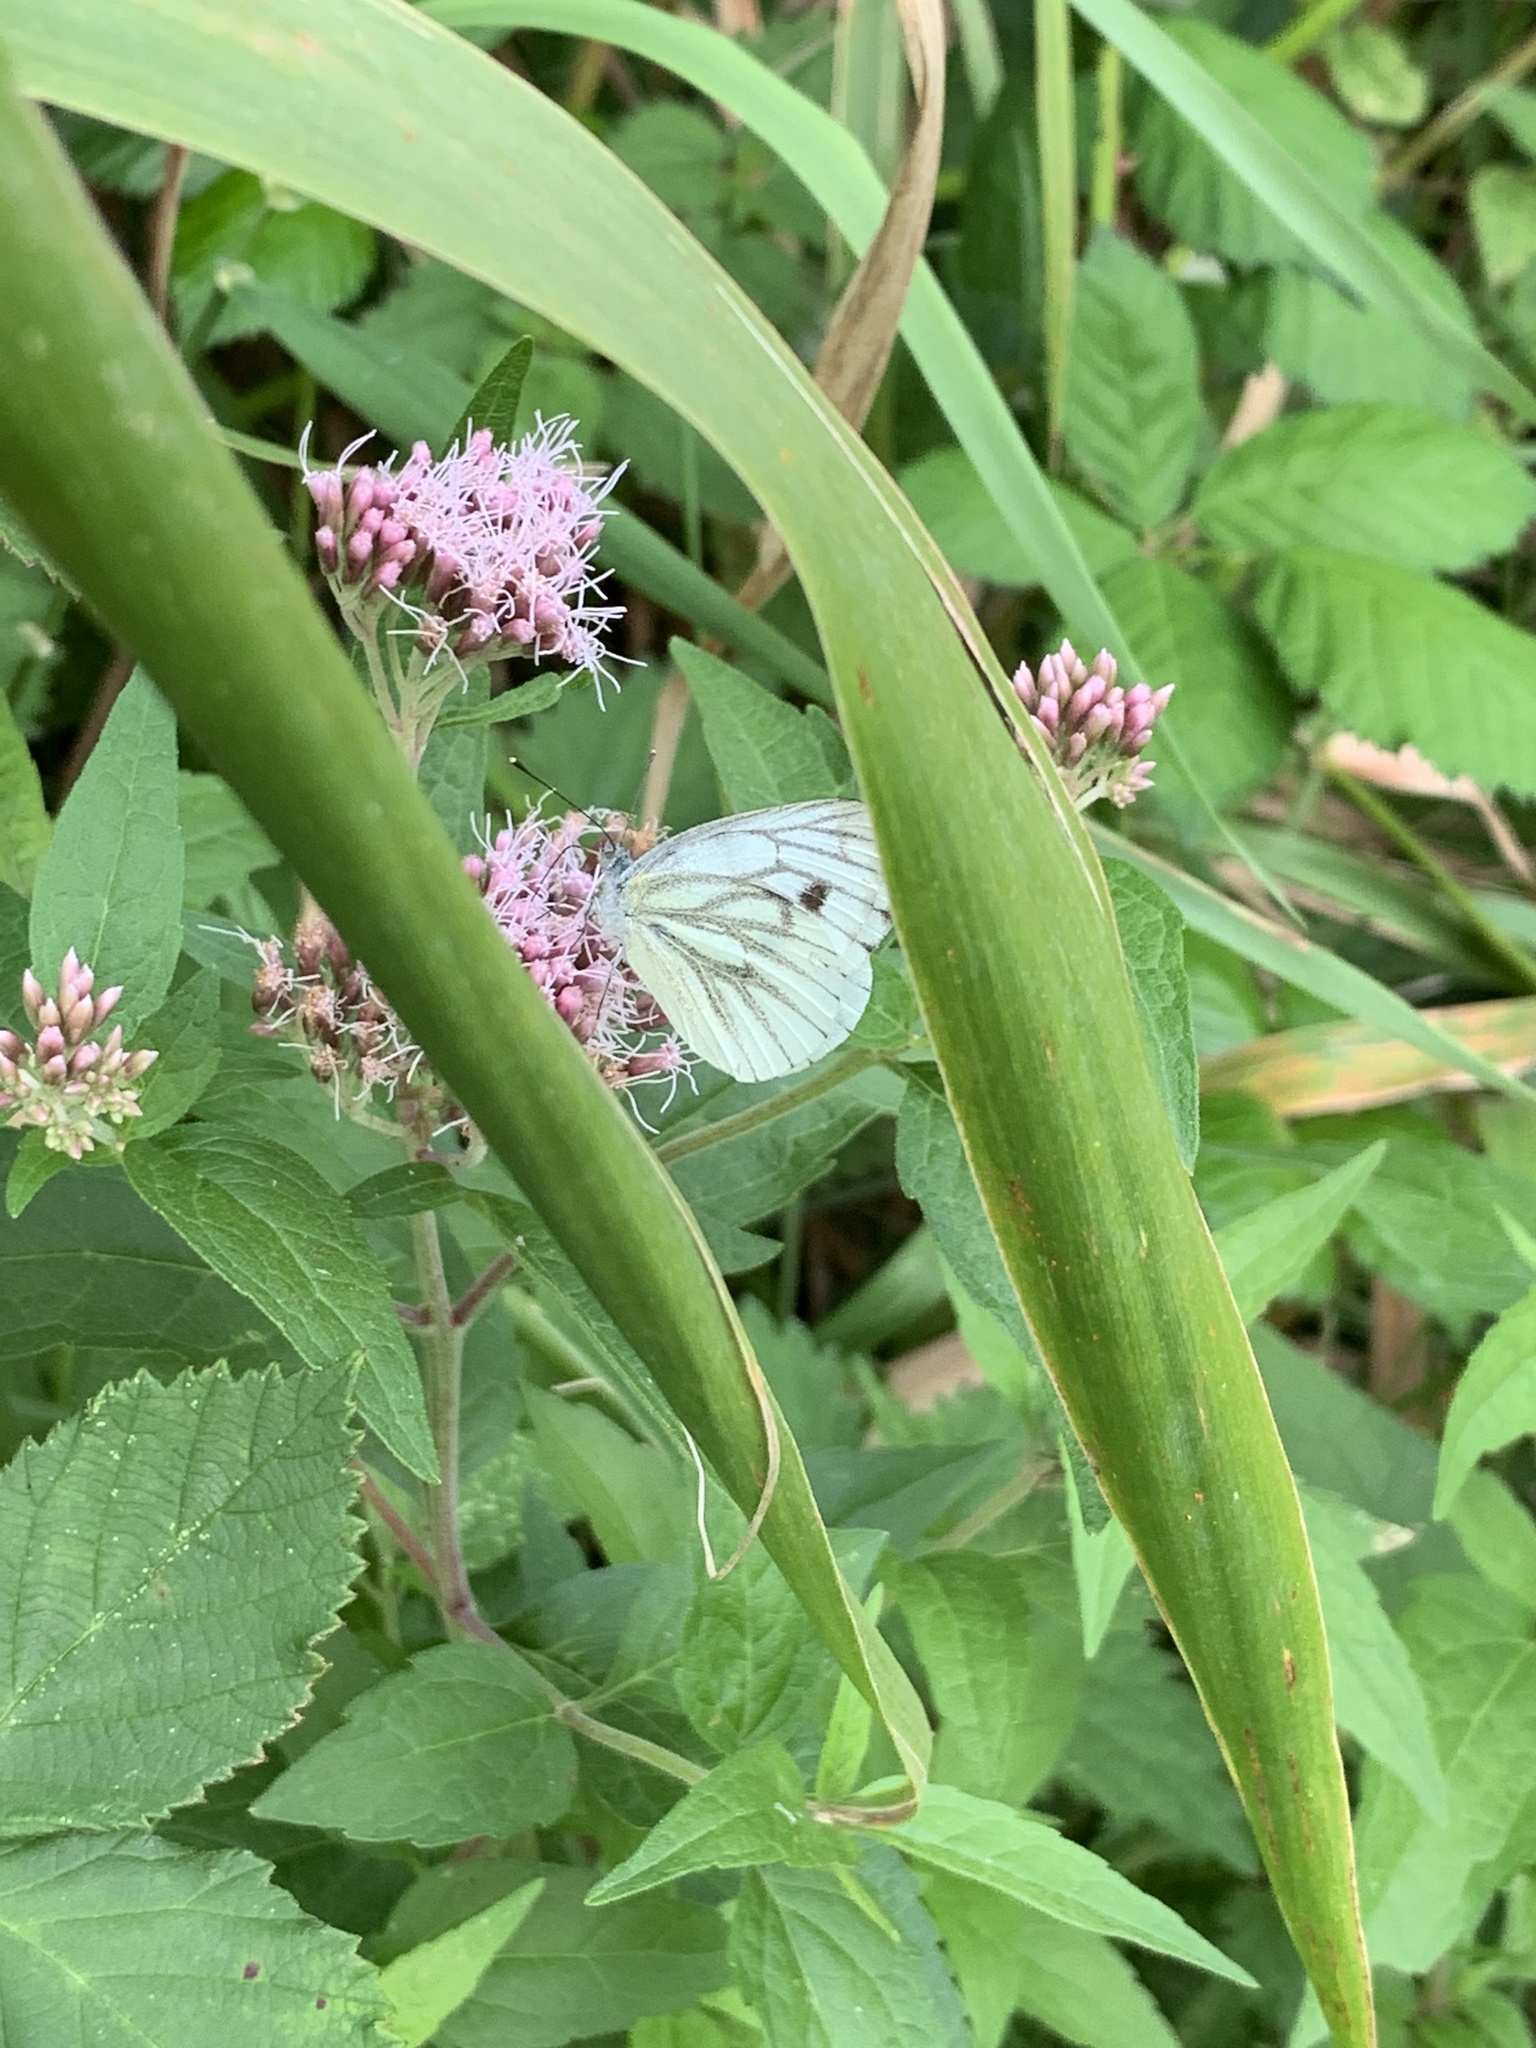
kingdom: Animalia
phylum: Arthropoda
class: Insecta
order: Lepidoptera
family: Pieridae
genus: Pieris
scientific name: Pieris napi
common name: Green-veined white
